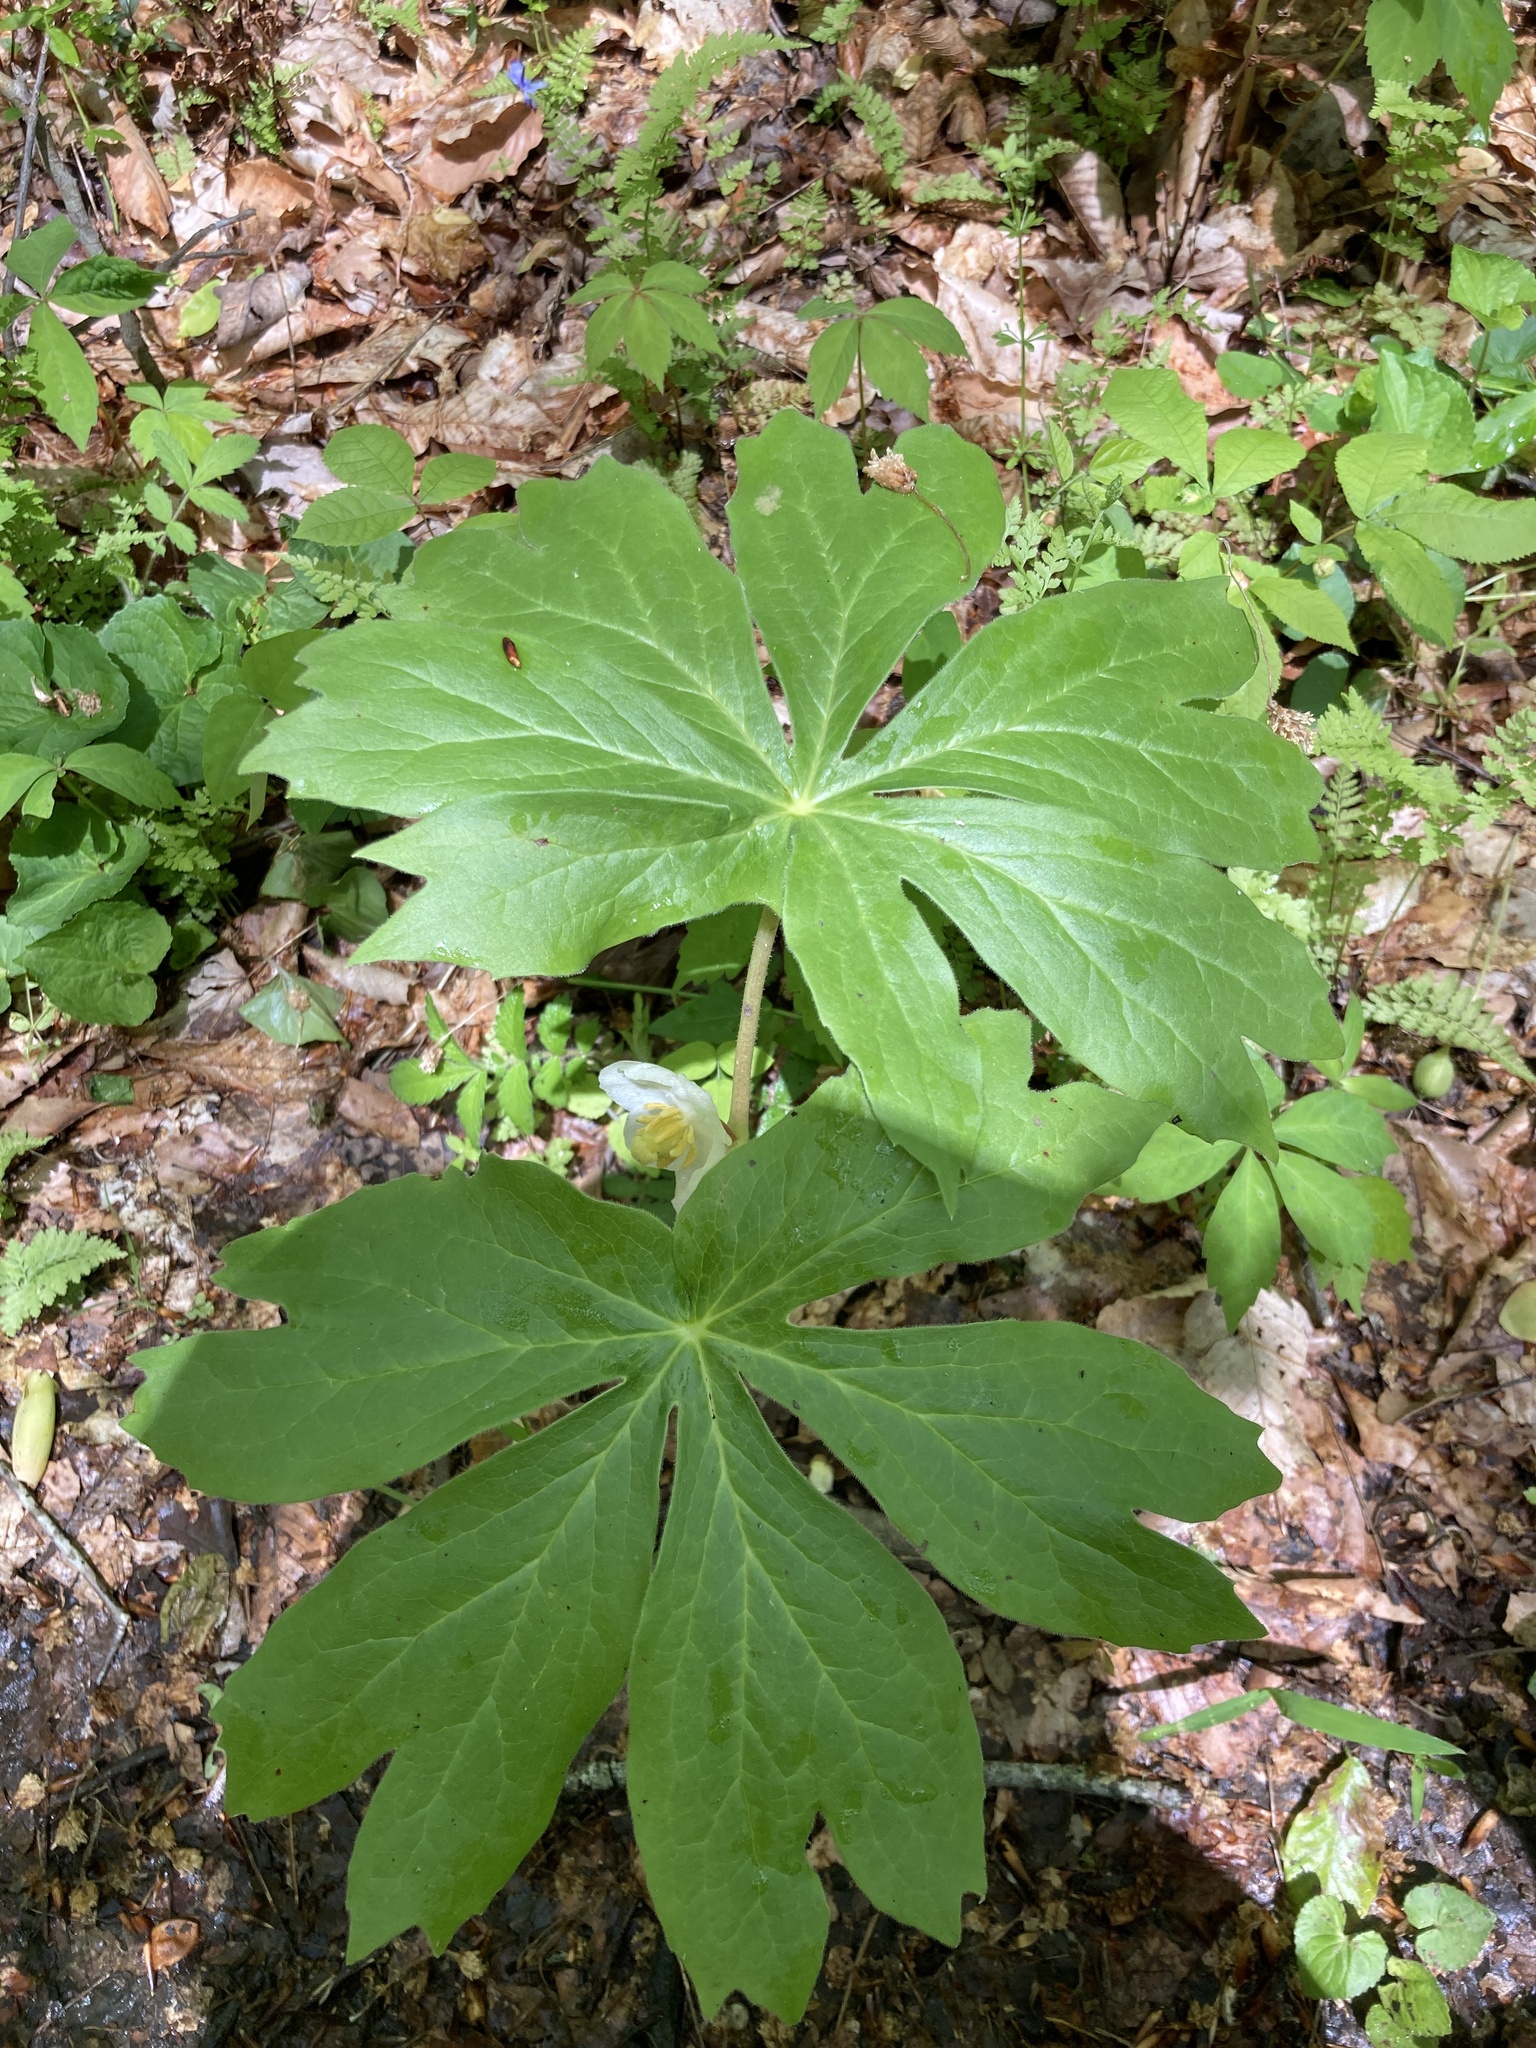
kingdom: Plantae
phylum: Tracheophyta
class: Magnoliopsida
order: Ranunculales
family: Berberidaceae
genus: Podophyllum
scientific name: Podophyllum peltatum
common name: Wild mandrake
